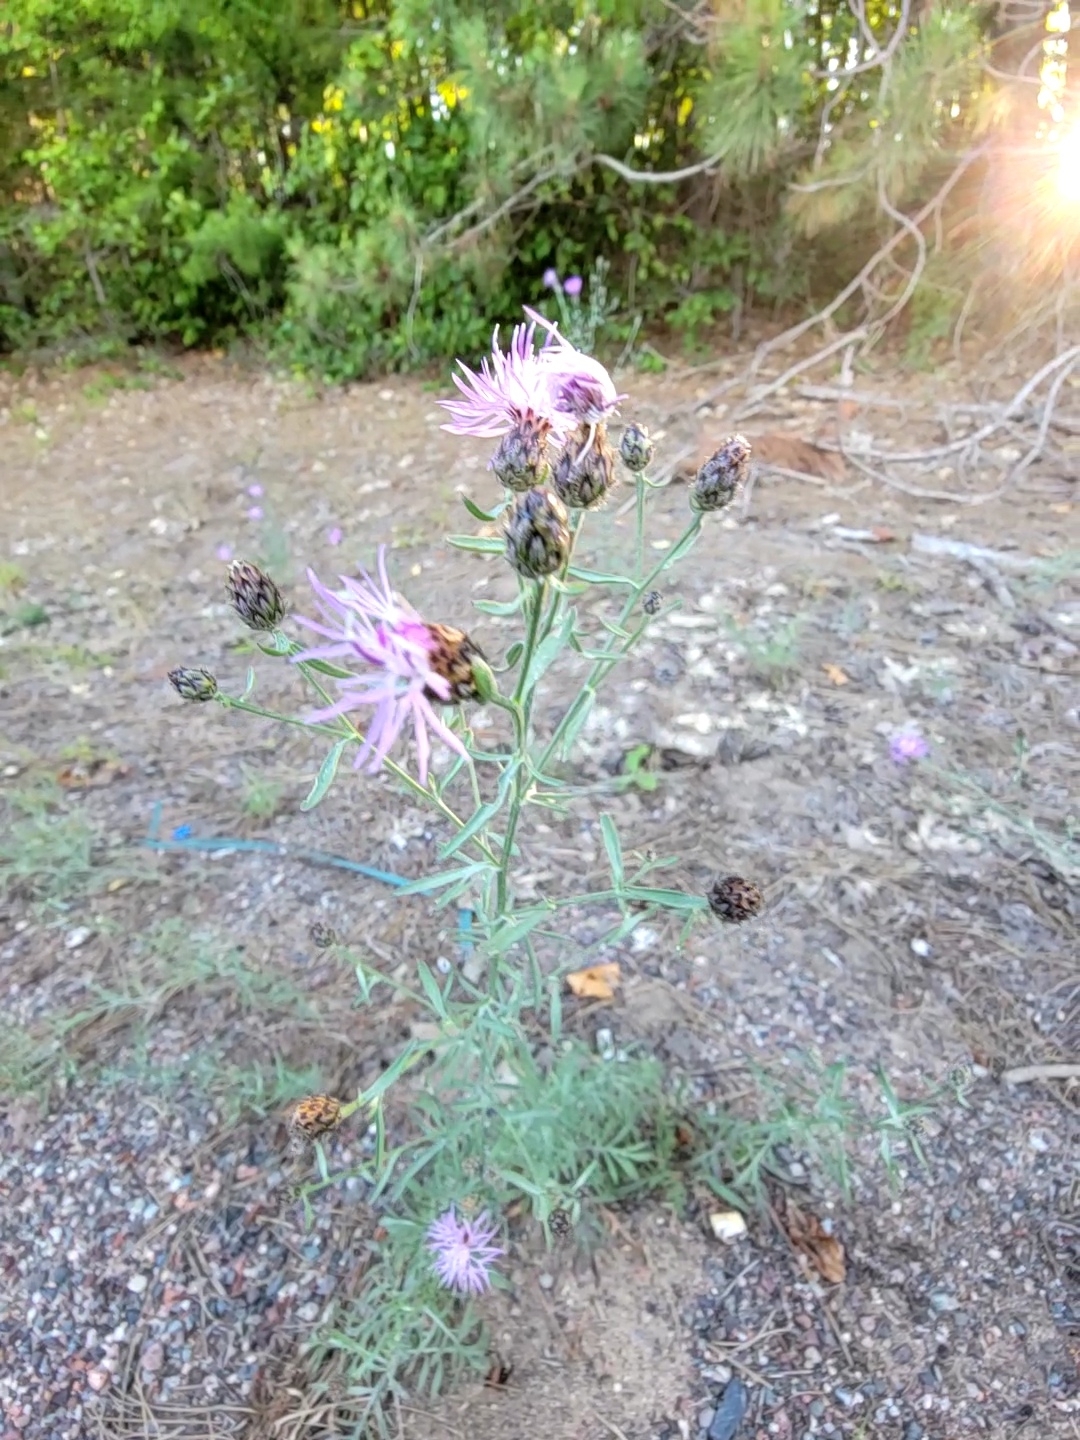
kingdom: Plantae
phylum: Tracheophyta
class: Magnoliopsida
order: Asterales
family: Asteraceae
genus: Centaurea
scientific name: Centaurea stoebe
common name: Spotted knapweed
